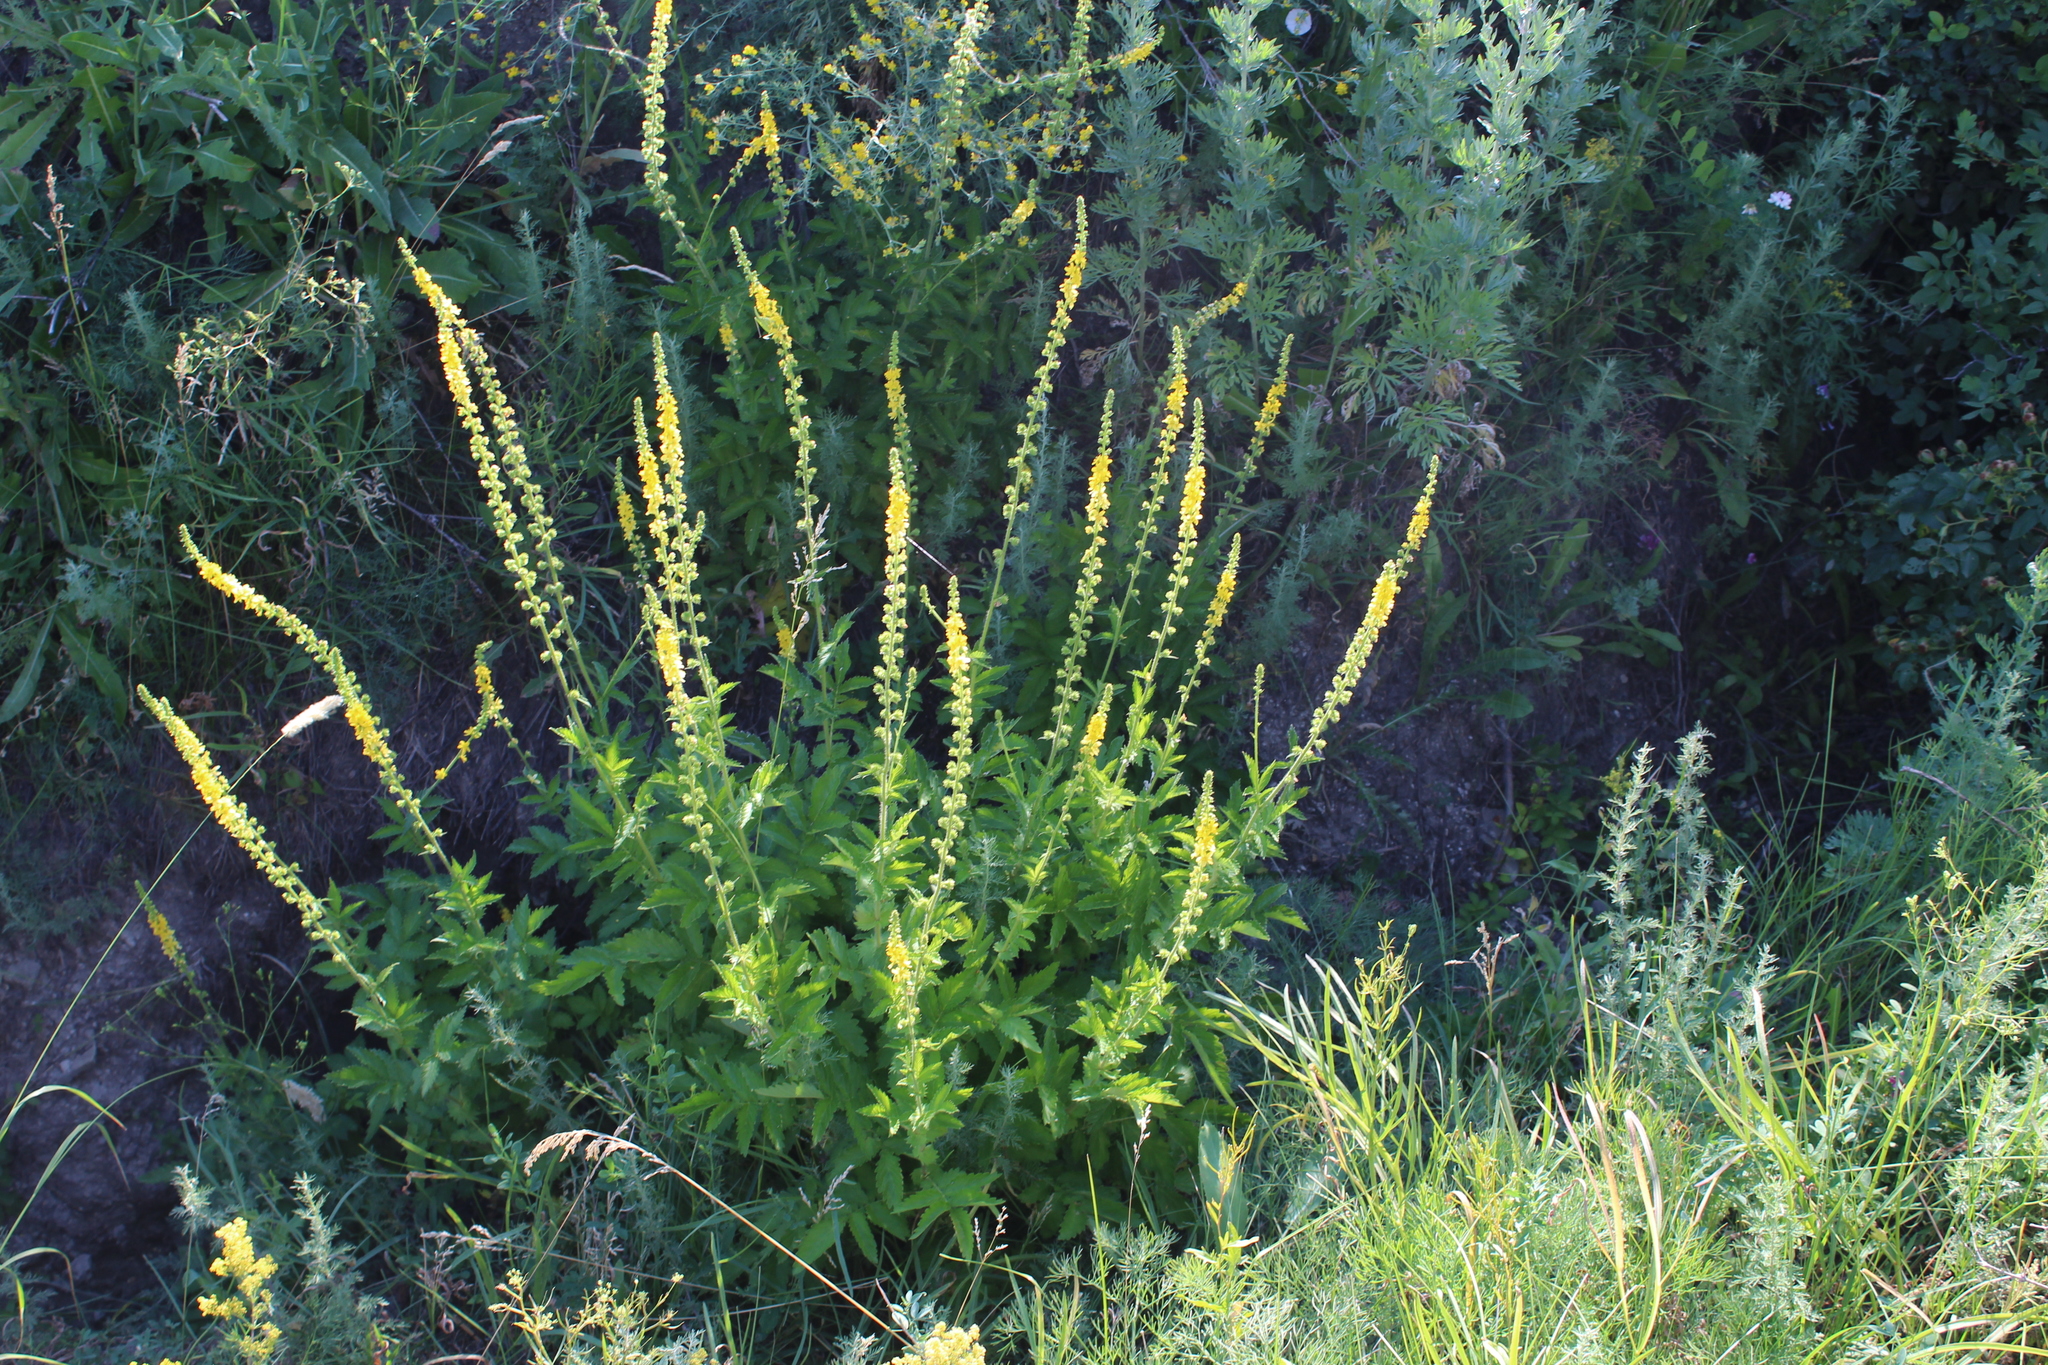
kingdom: Plantae
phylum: Tracheophyta
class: Magnoliopsida
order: Rosales
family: Rosaceae
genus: Agrimonia
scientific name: Agrimonia eupatoria
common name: Agrimony
